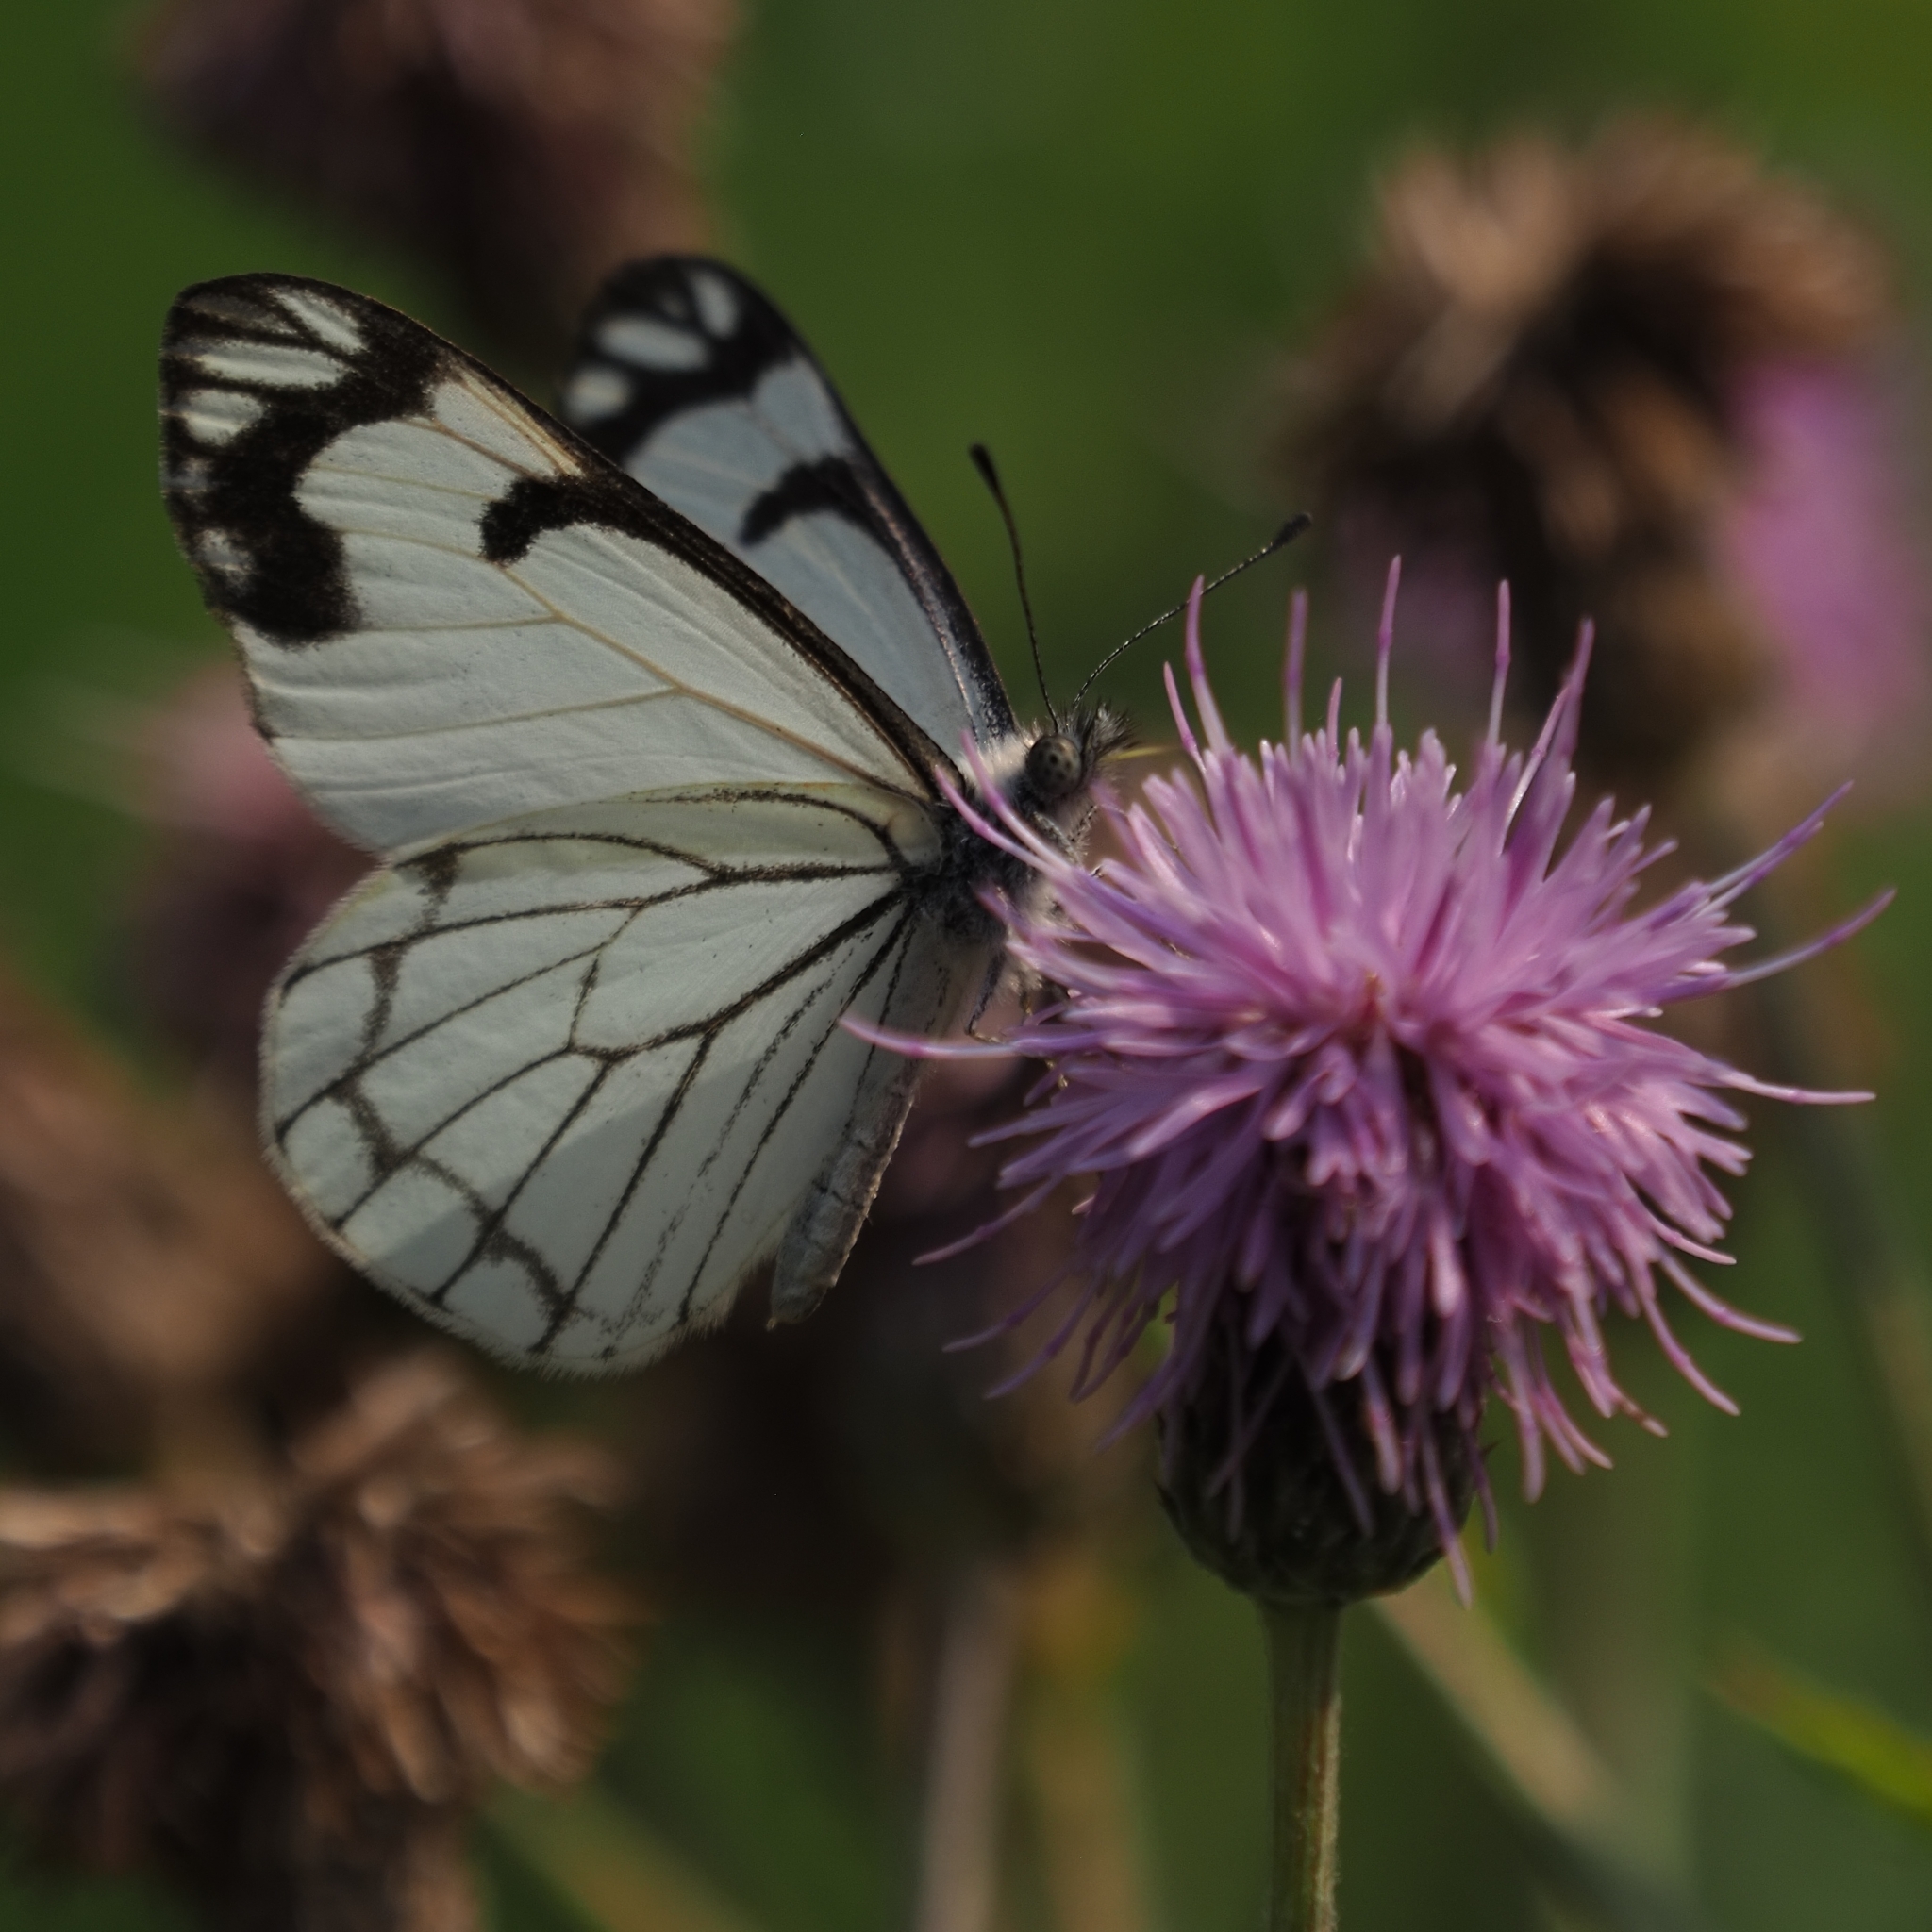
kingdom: Animalia
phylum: Arthropoda
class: Insecta
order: Lepidoptera
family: Pieridae
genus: Neophasia
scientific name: Neophasia menapia
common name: Pine white
